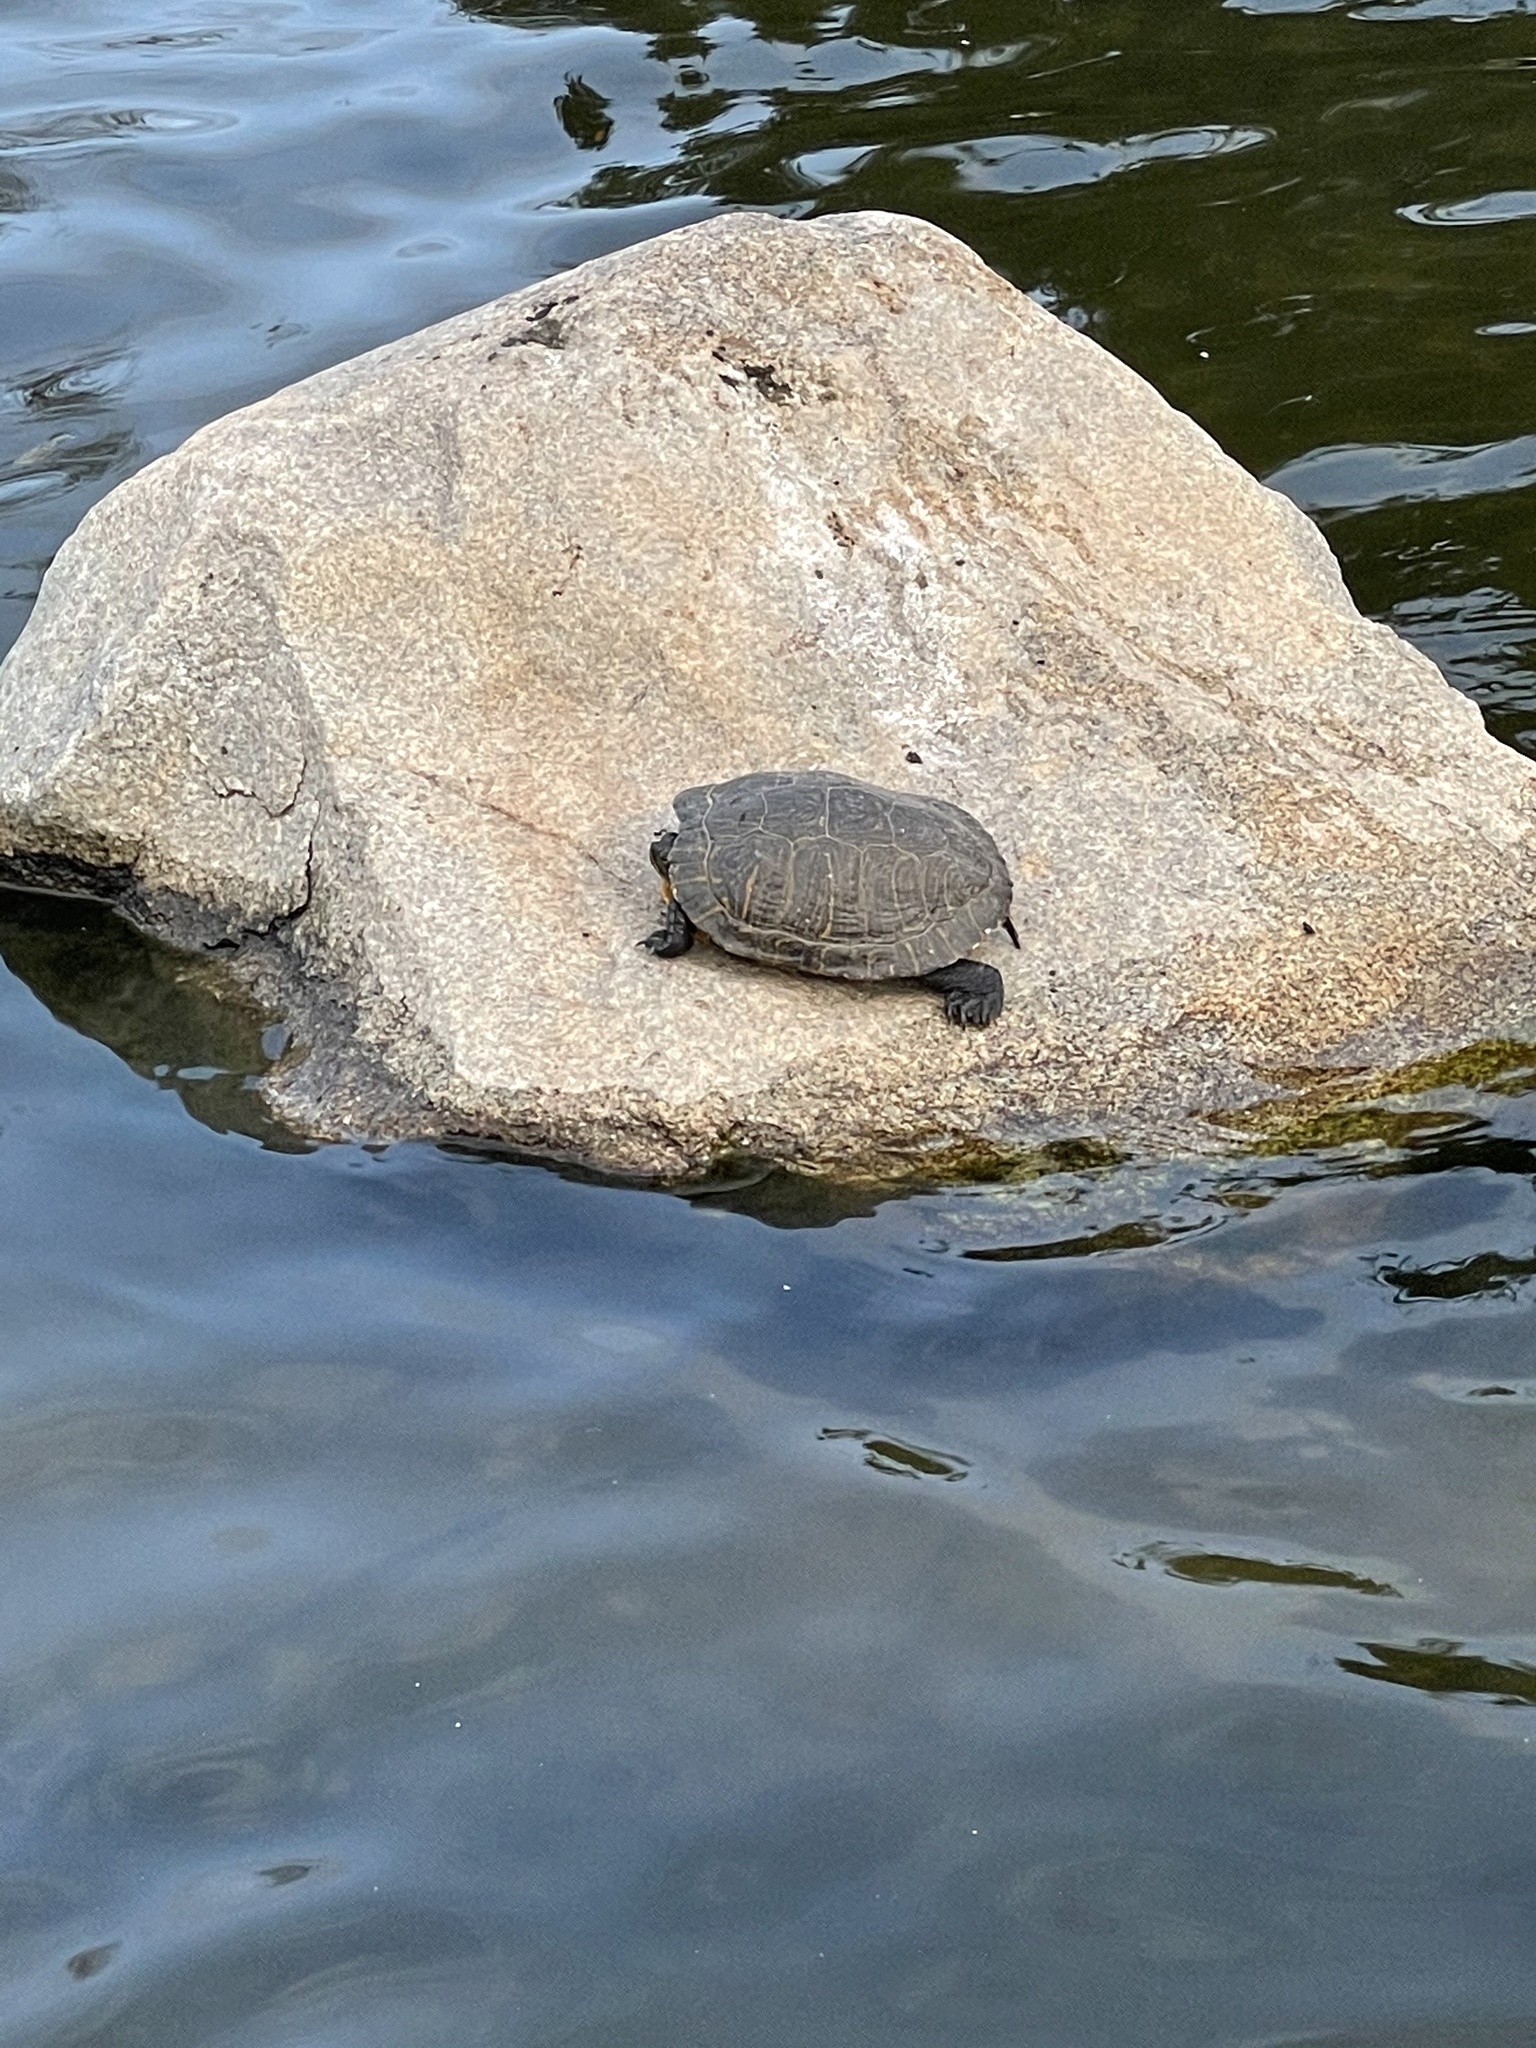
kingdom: Animalia
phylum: Chordata
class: Testudines
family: Emydidae
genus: Trachemys
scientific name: Trachemys scripta
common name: Slider
